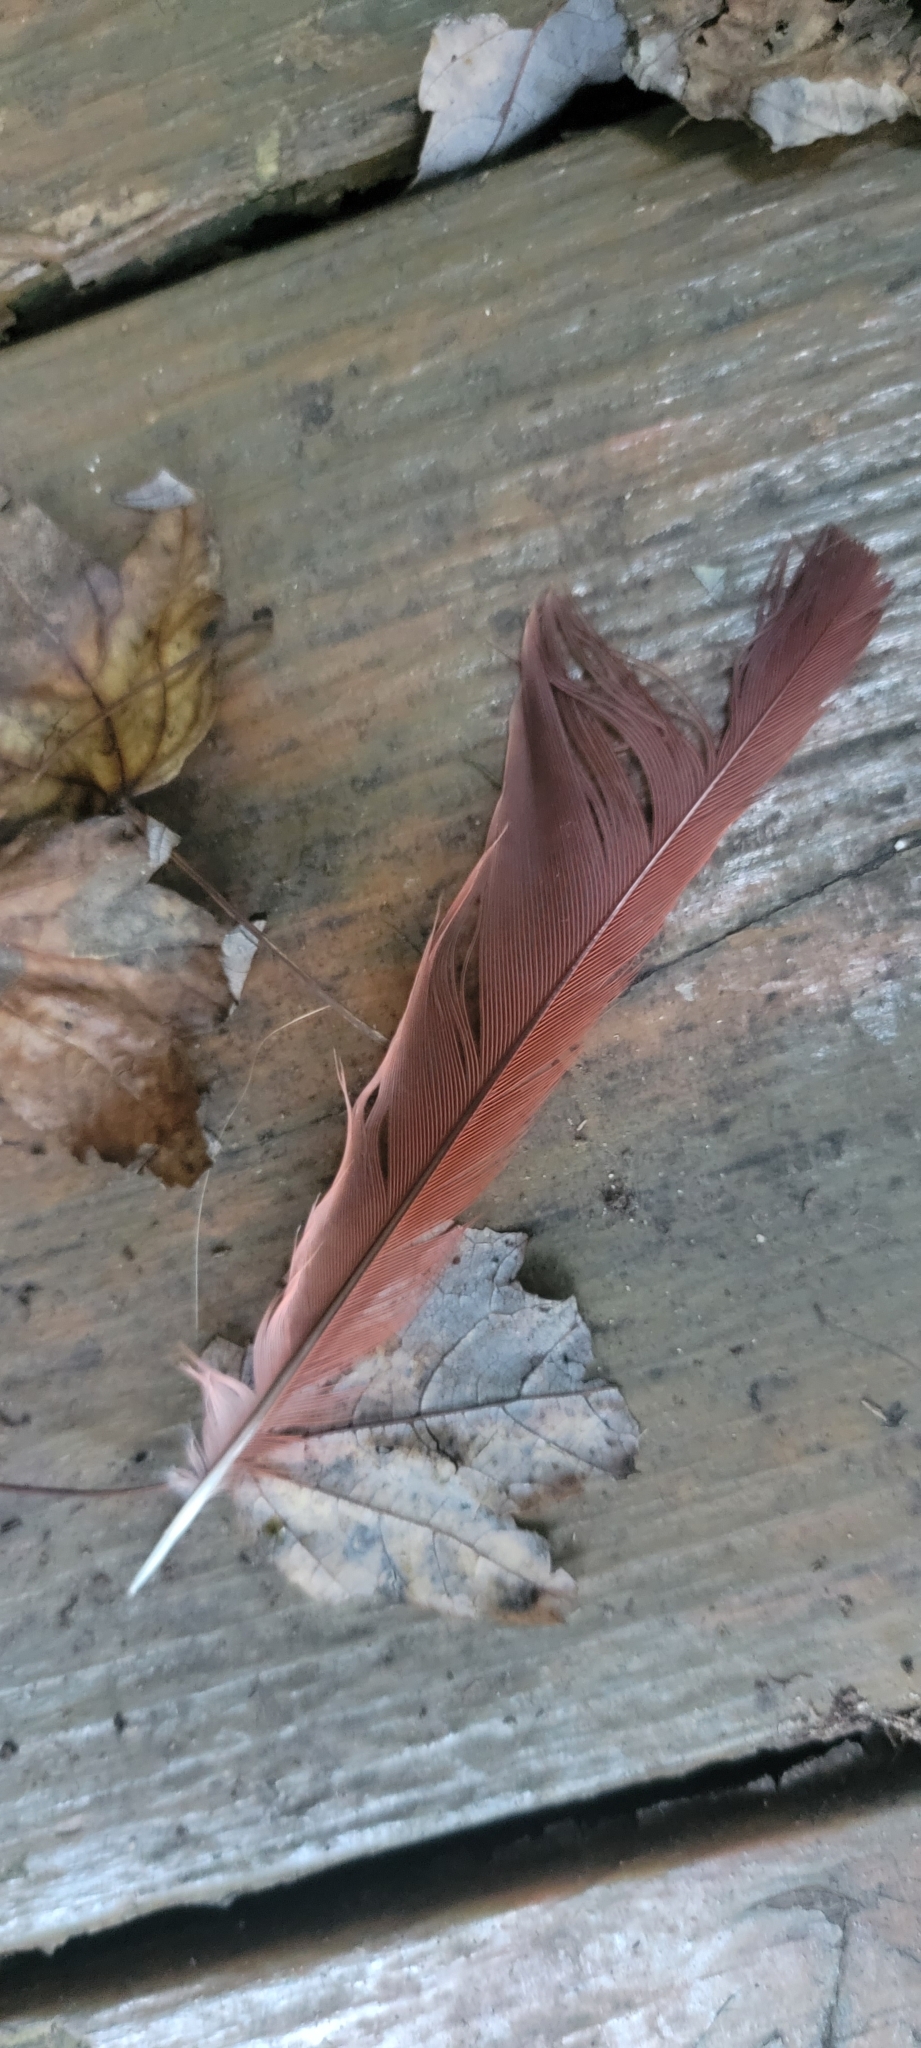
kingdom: Animalia
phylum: Chordata
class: Aves
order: Passeriformes
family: Cardinalidae
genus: Cardinalis
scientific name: Cardinalis cardinalis
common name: Northern cardinal
